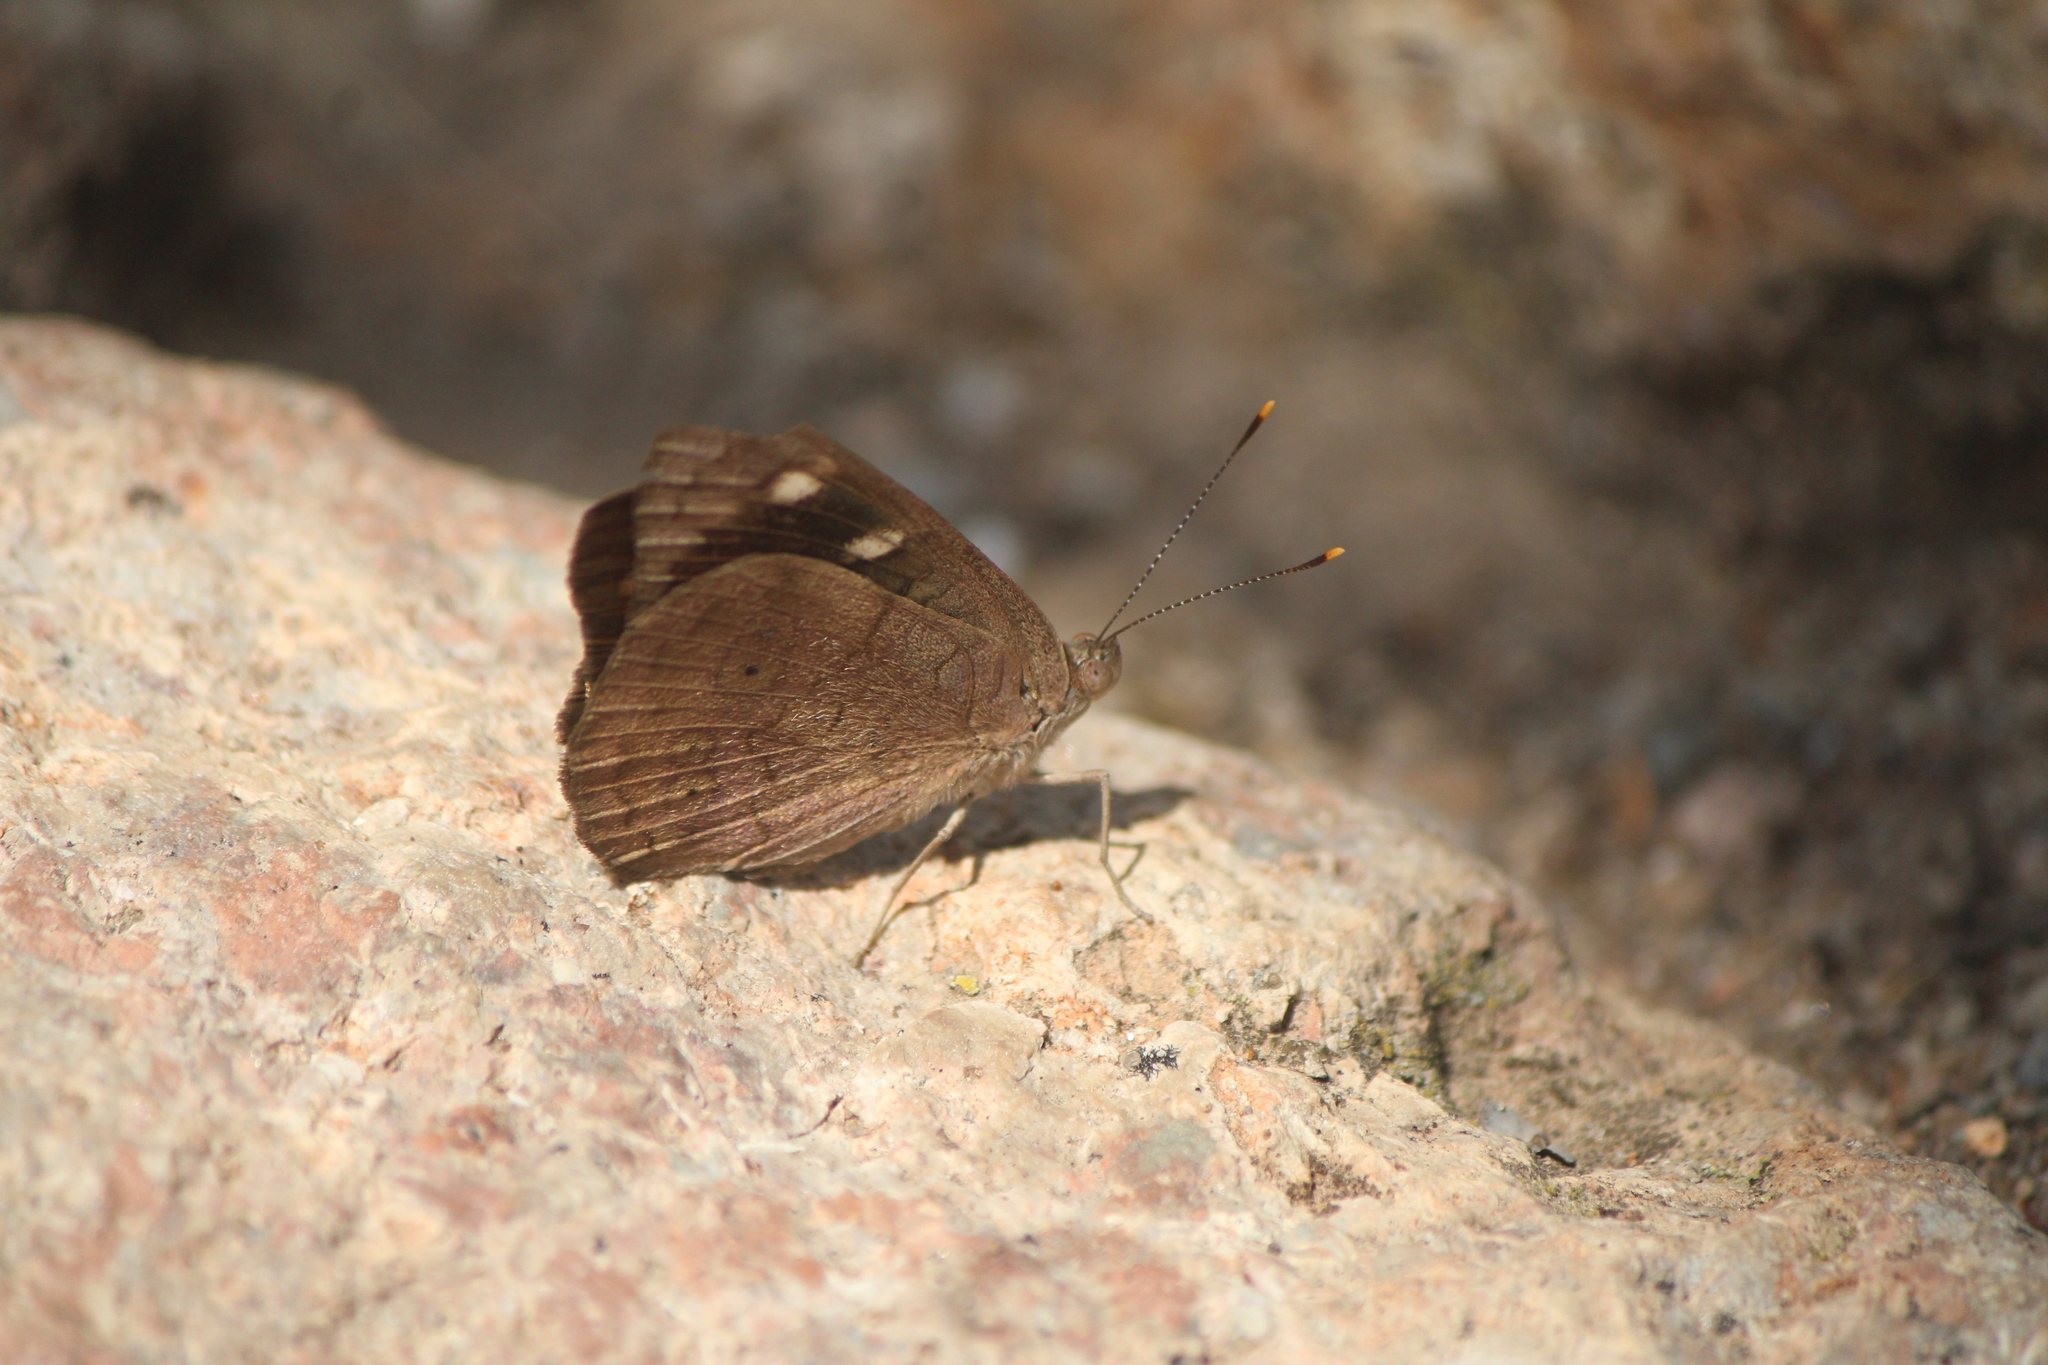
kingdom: Animalia
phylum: Arthropoda
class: Insecta
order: Lepidoptera
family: Nymphalidae
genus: Eunica
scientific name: Eunica monima
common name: Dingy purplewing
